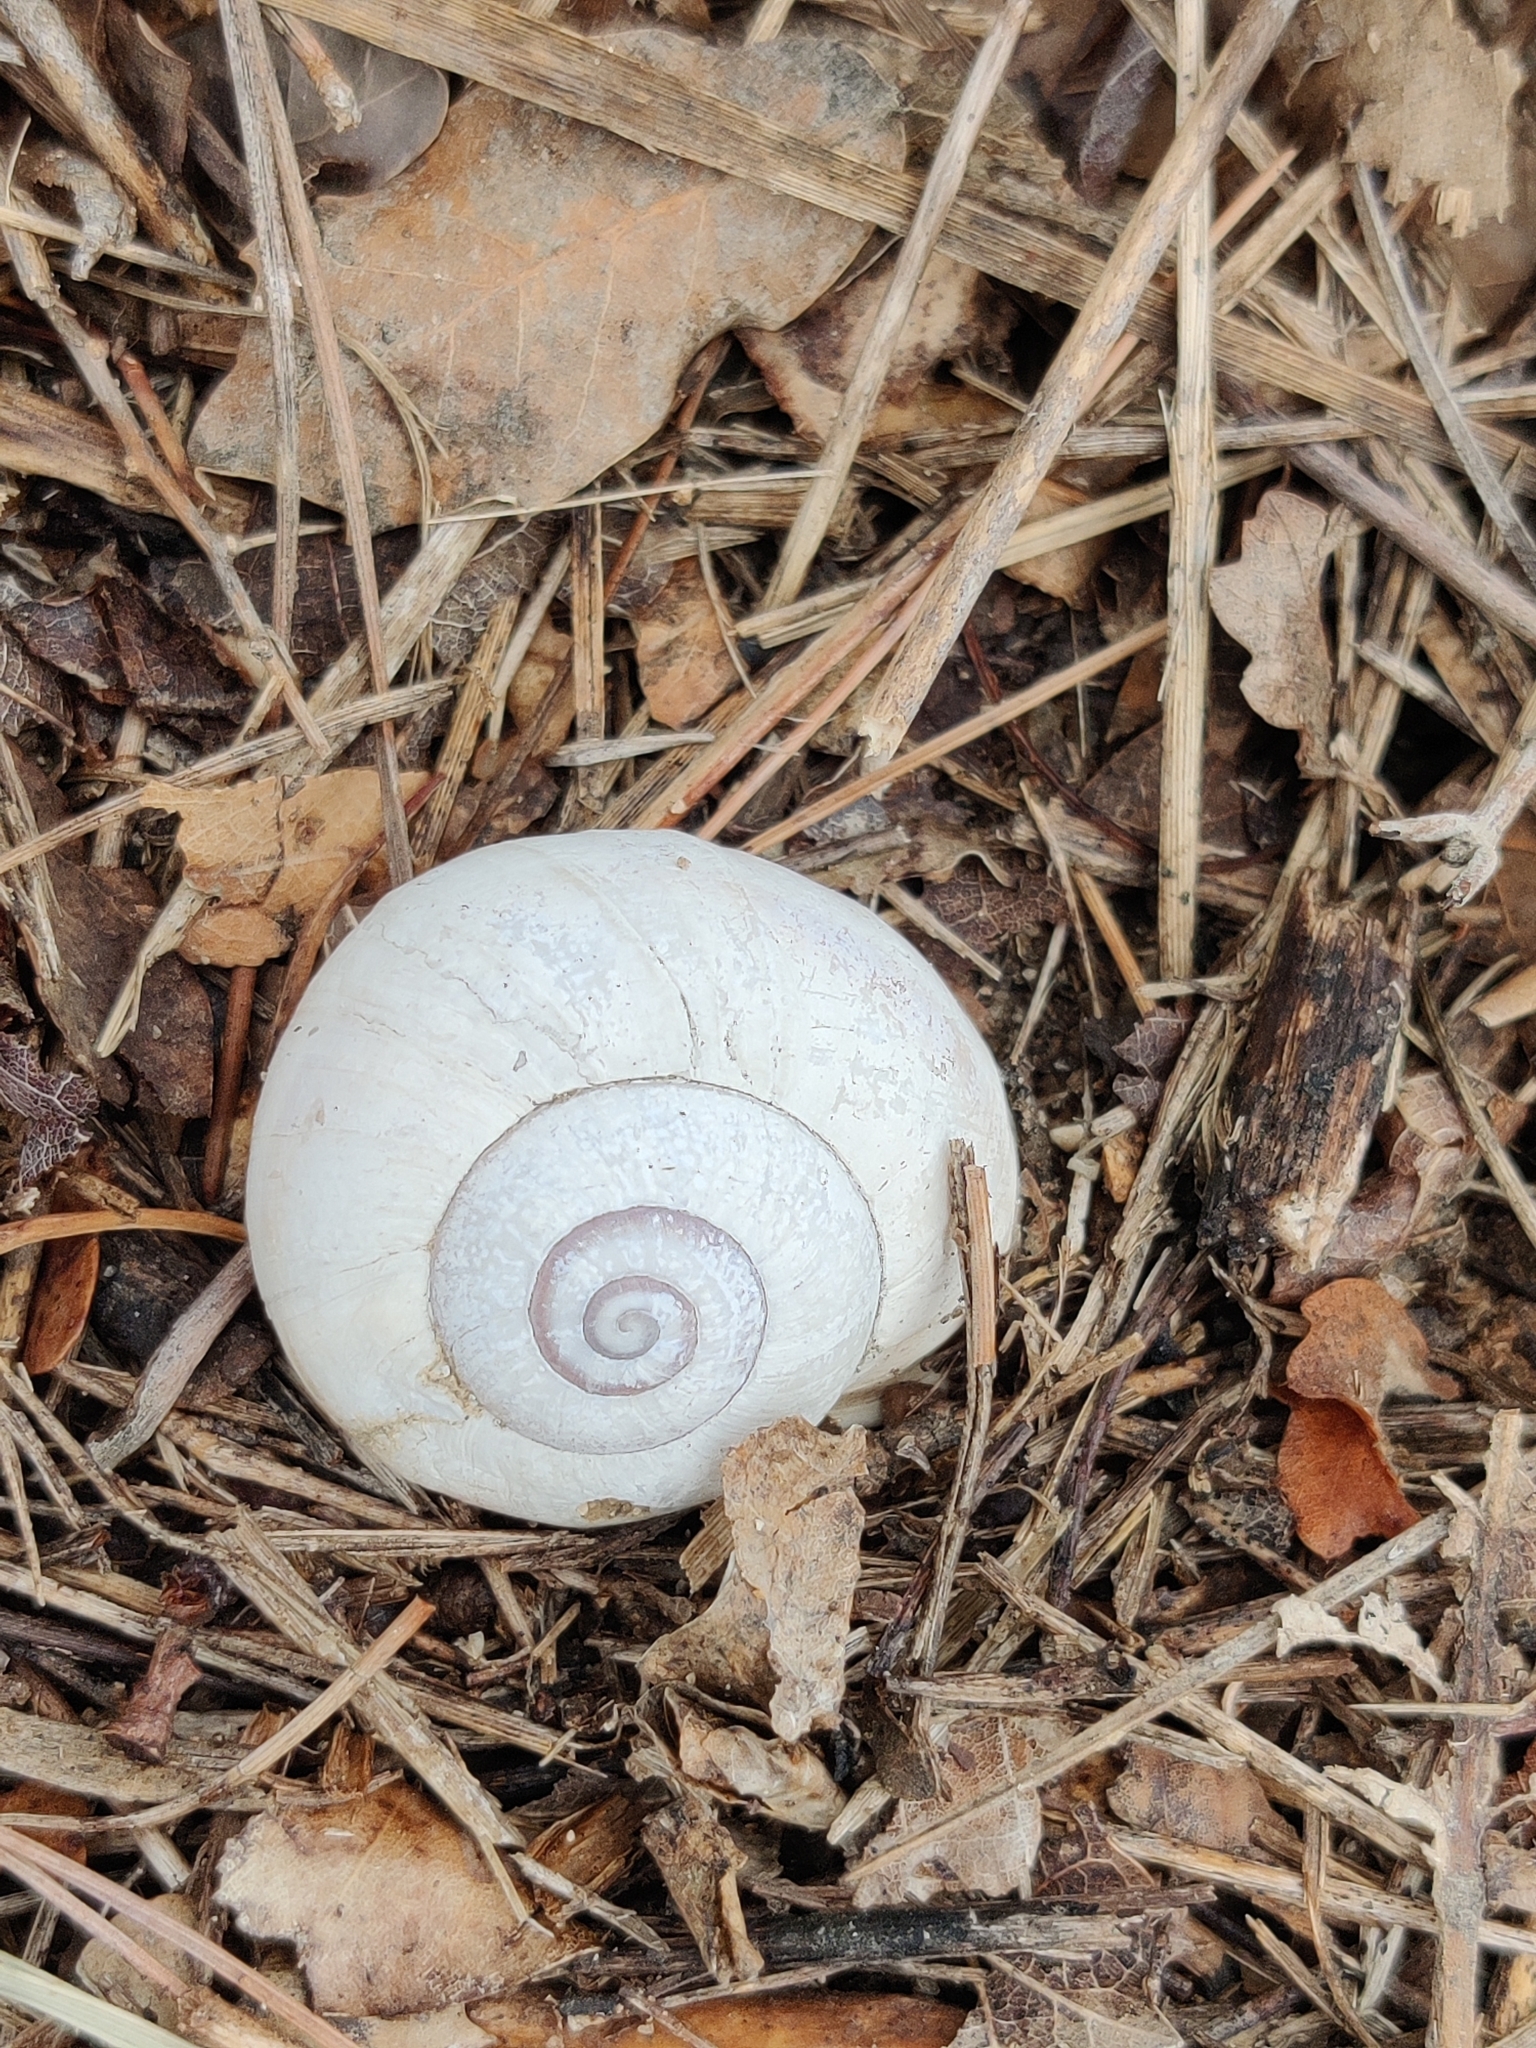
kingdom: Animalia
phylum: Mollusca
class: Gastropoda
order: Stylommatophora
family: Helicidae
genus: Otala
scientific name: Otala punctata
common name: Milk snail
